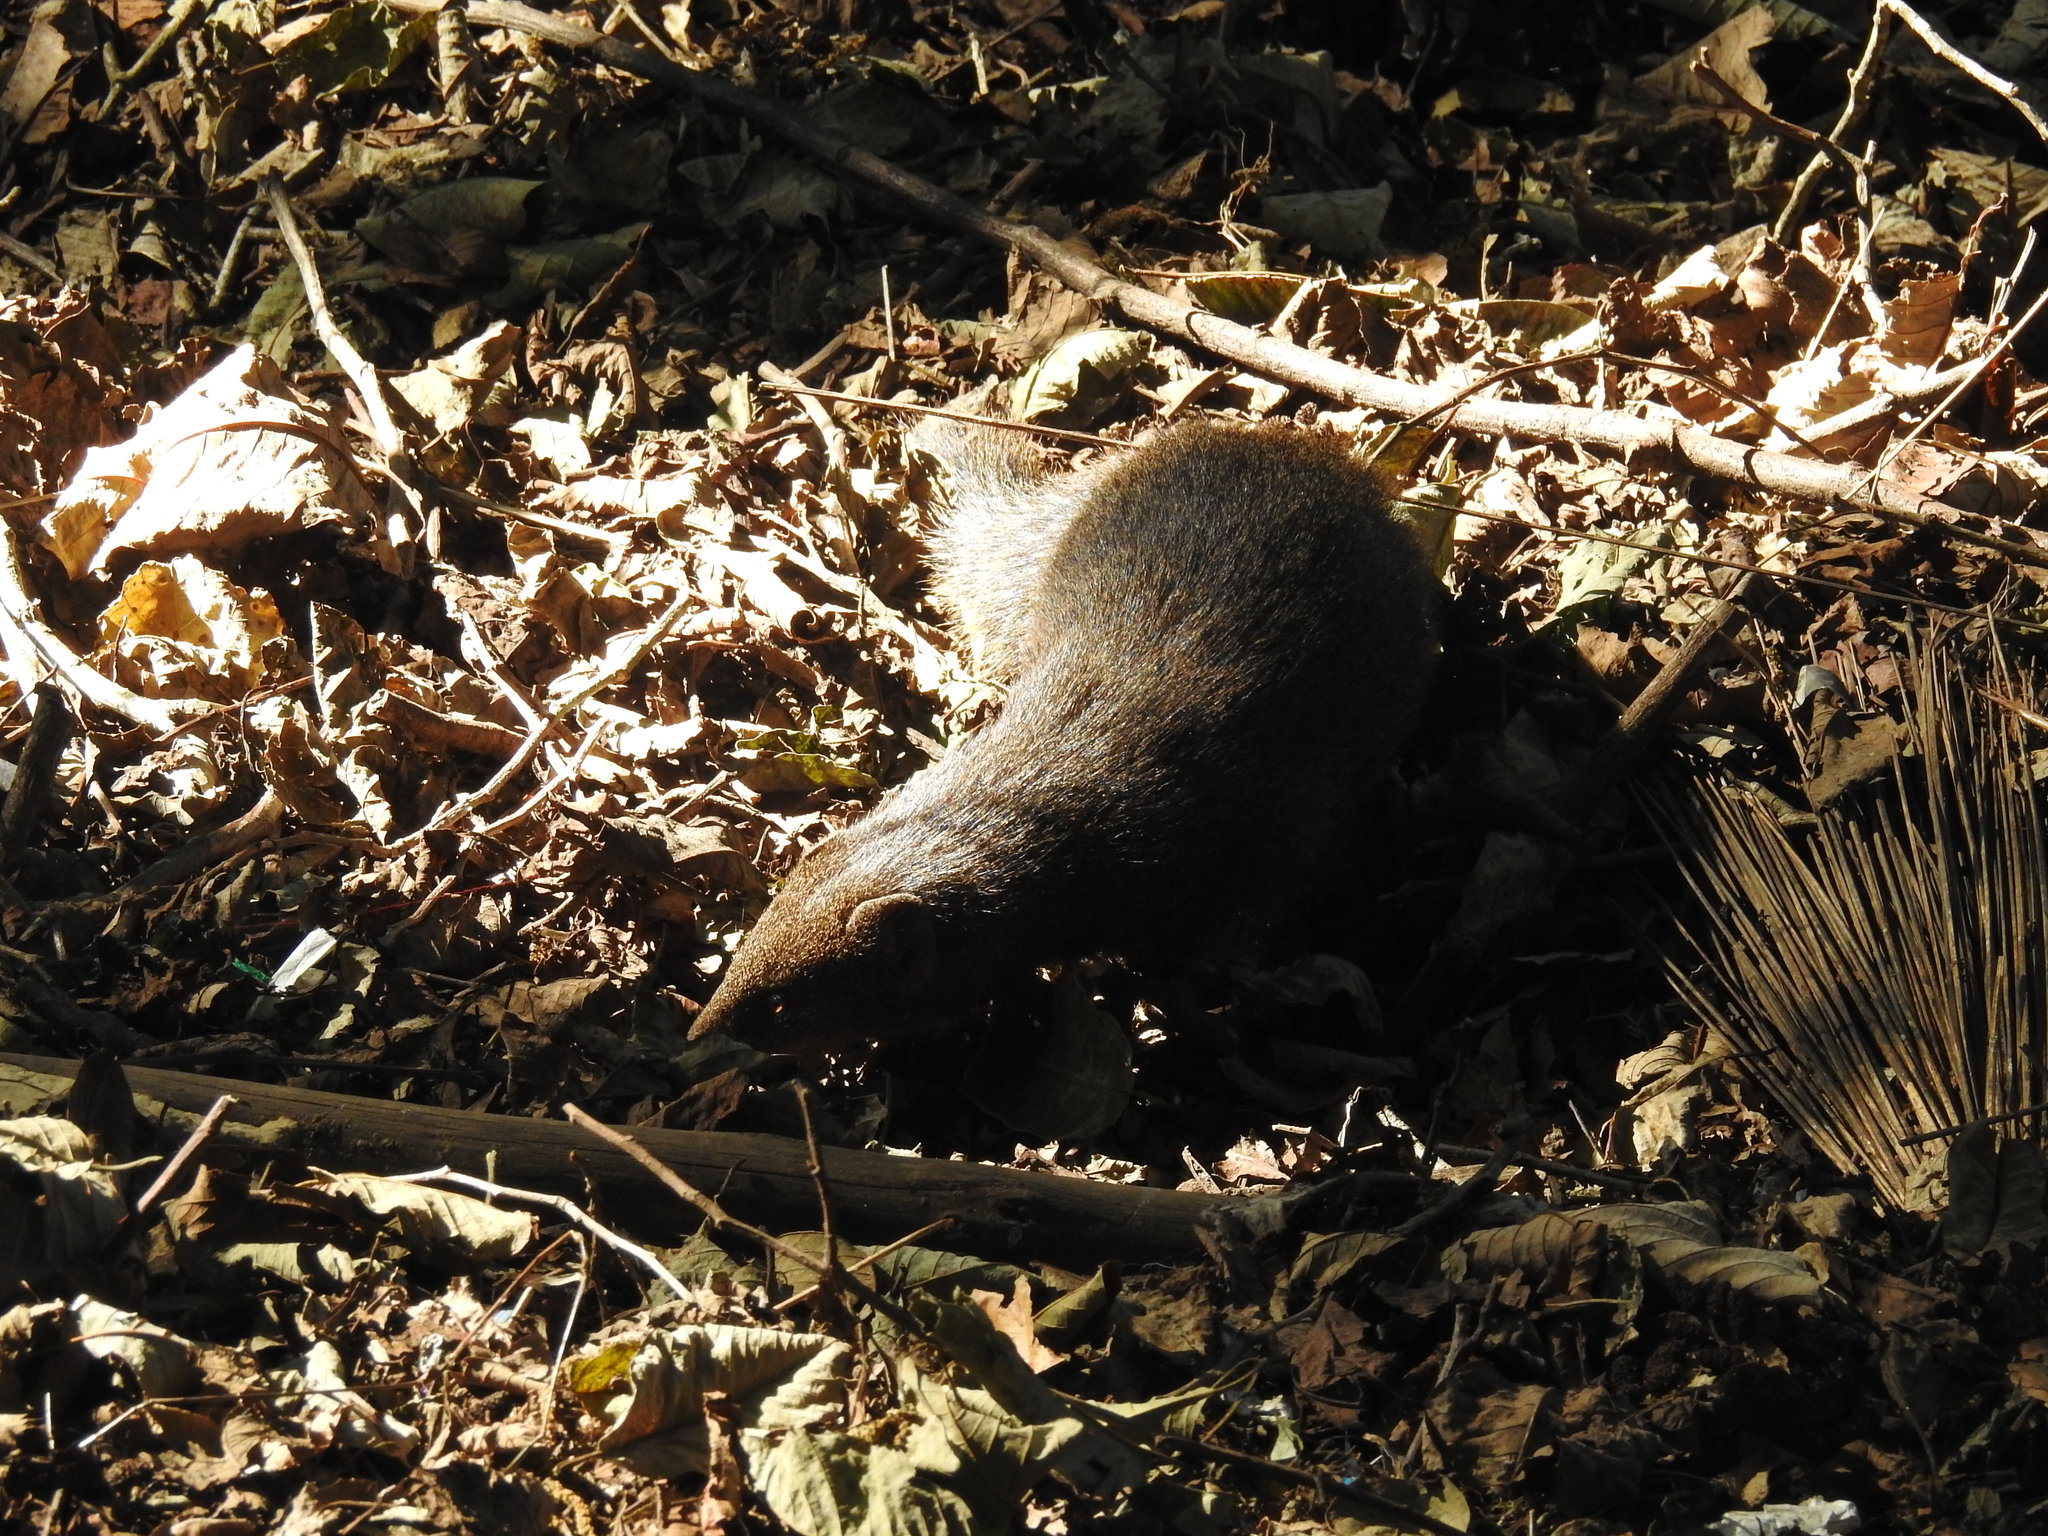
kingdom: Animalia
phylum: Chordata
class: Mammalia
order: Carnivora
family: Herpestidae
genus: Herpestes
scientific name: Herpestes fuscus
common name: Indian brown mongoose
